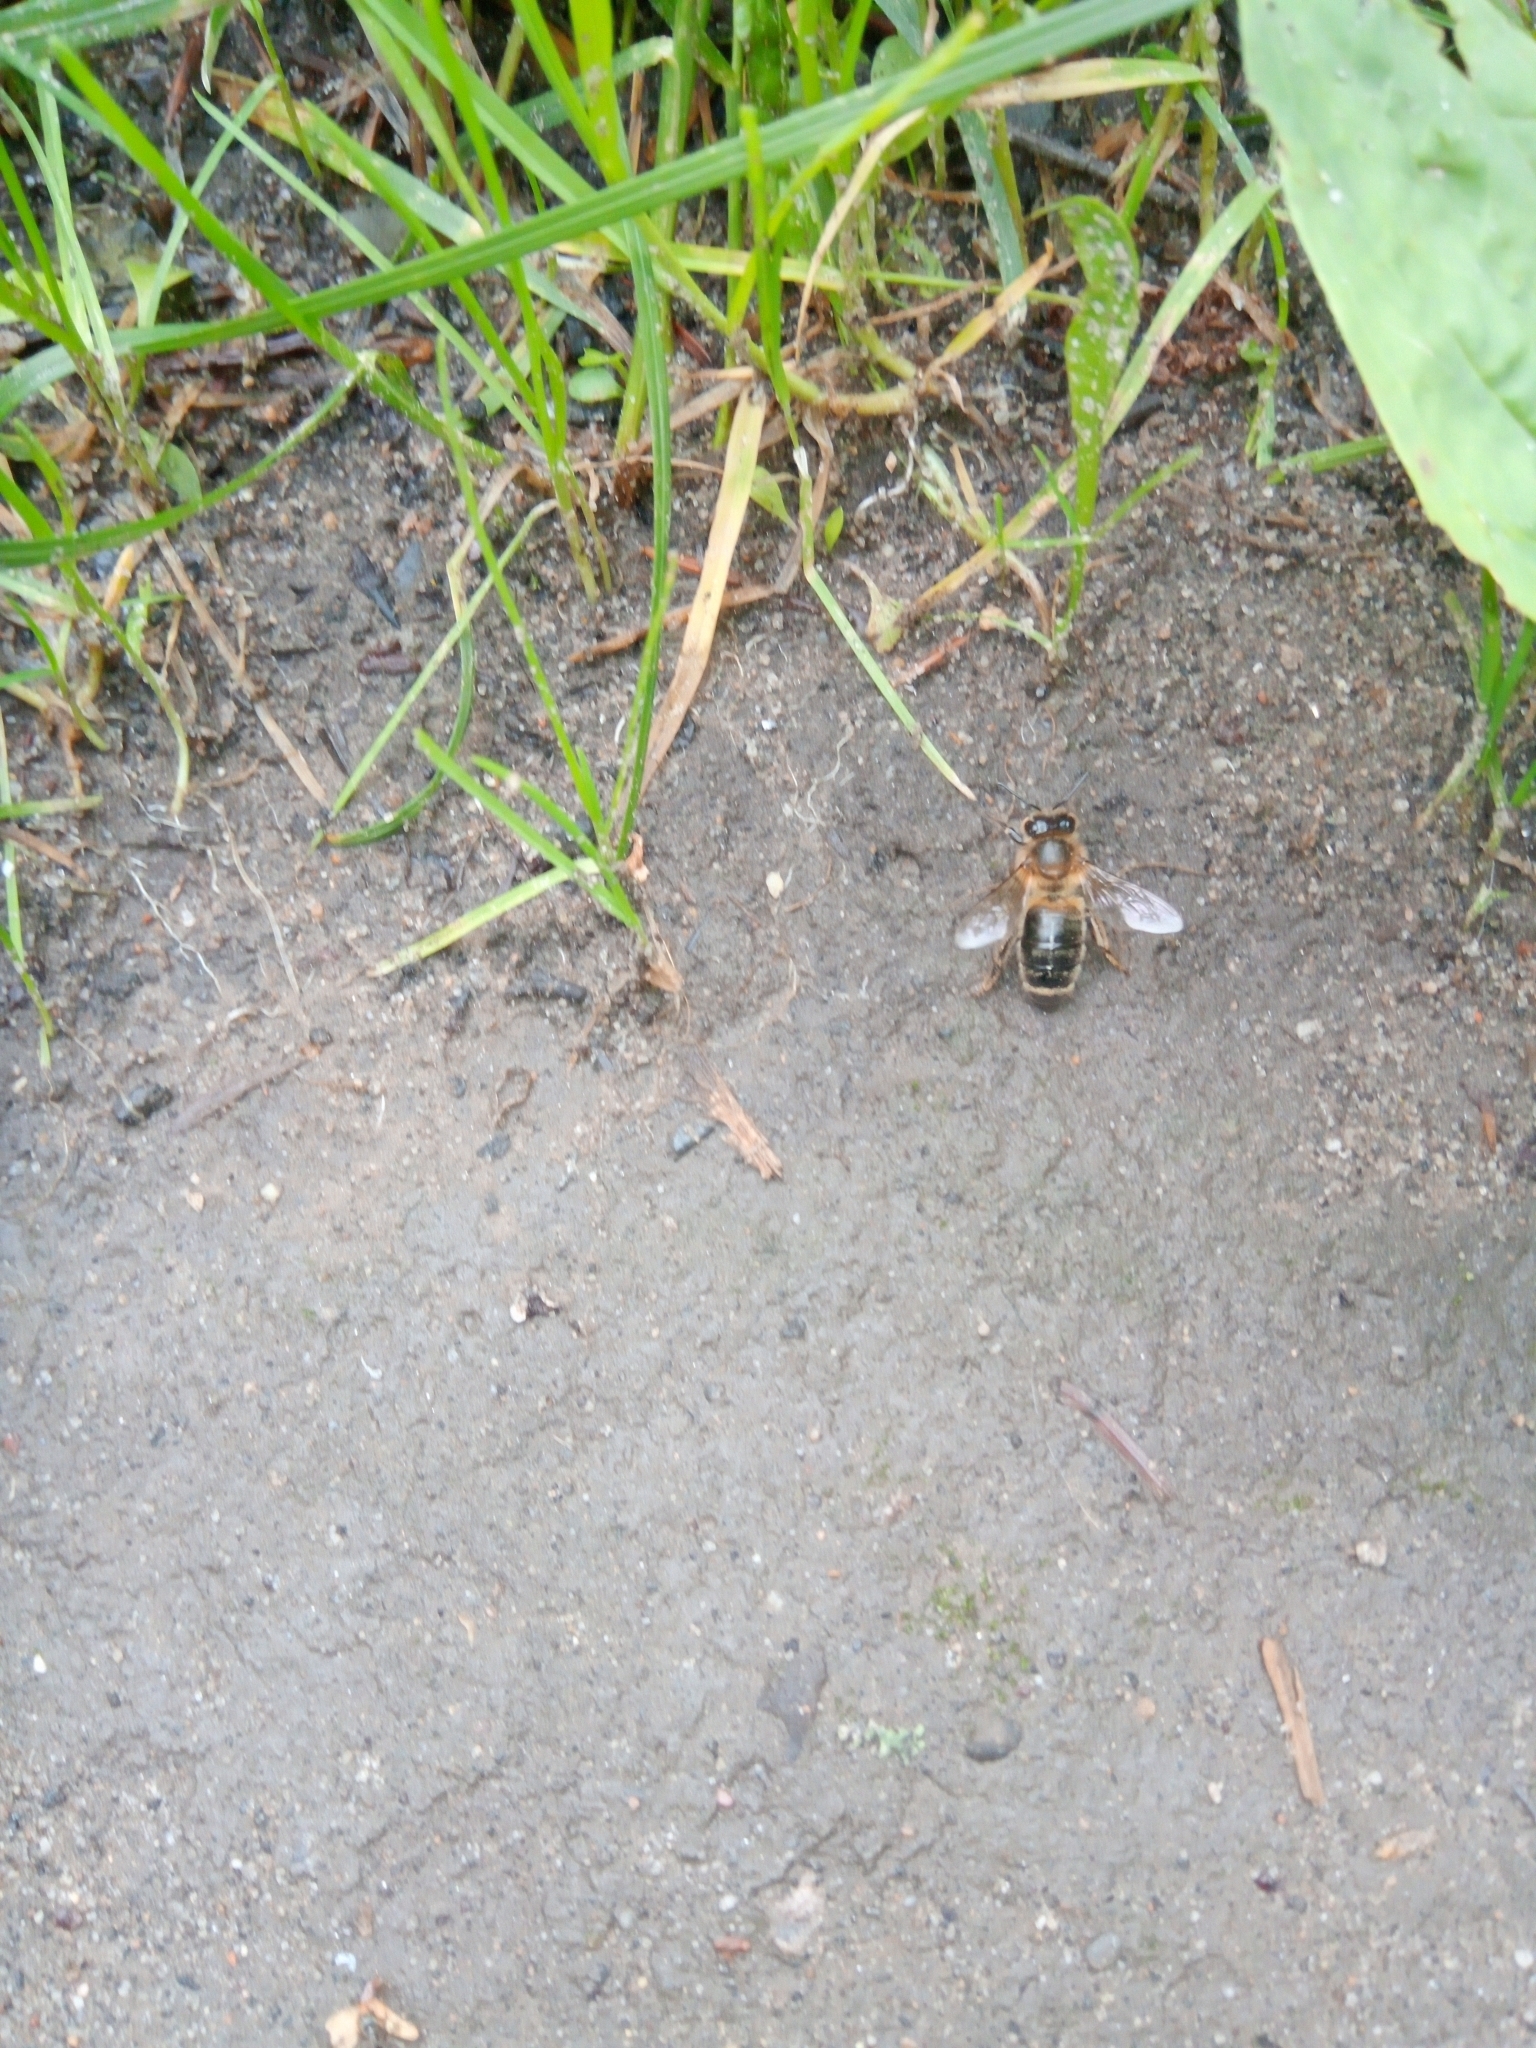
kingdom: Animalia
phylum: Arthropoda
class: Insecta
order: Hymenoptera
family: Apidae
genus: Apis
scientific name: Apis mellifera
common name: Honey bee
